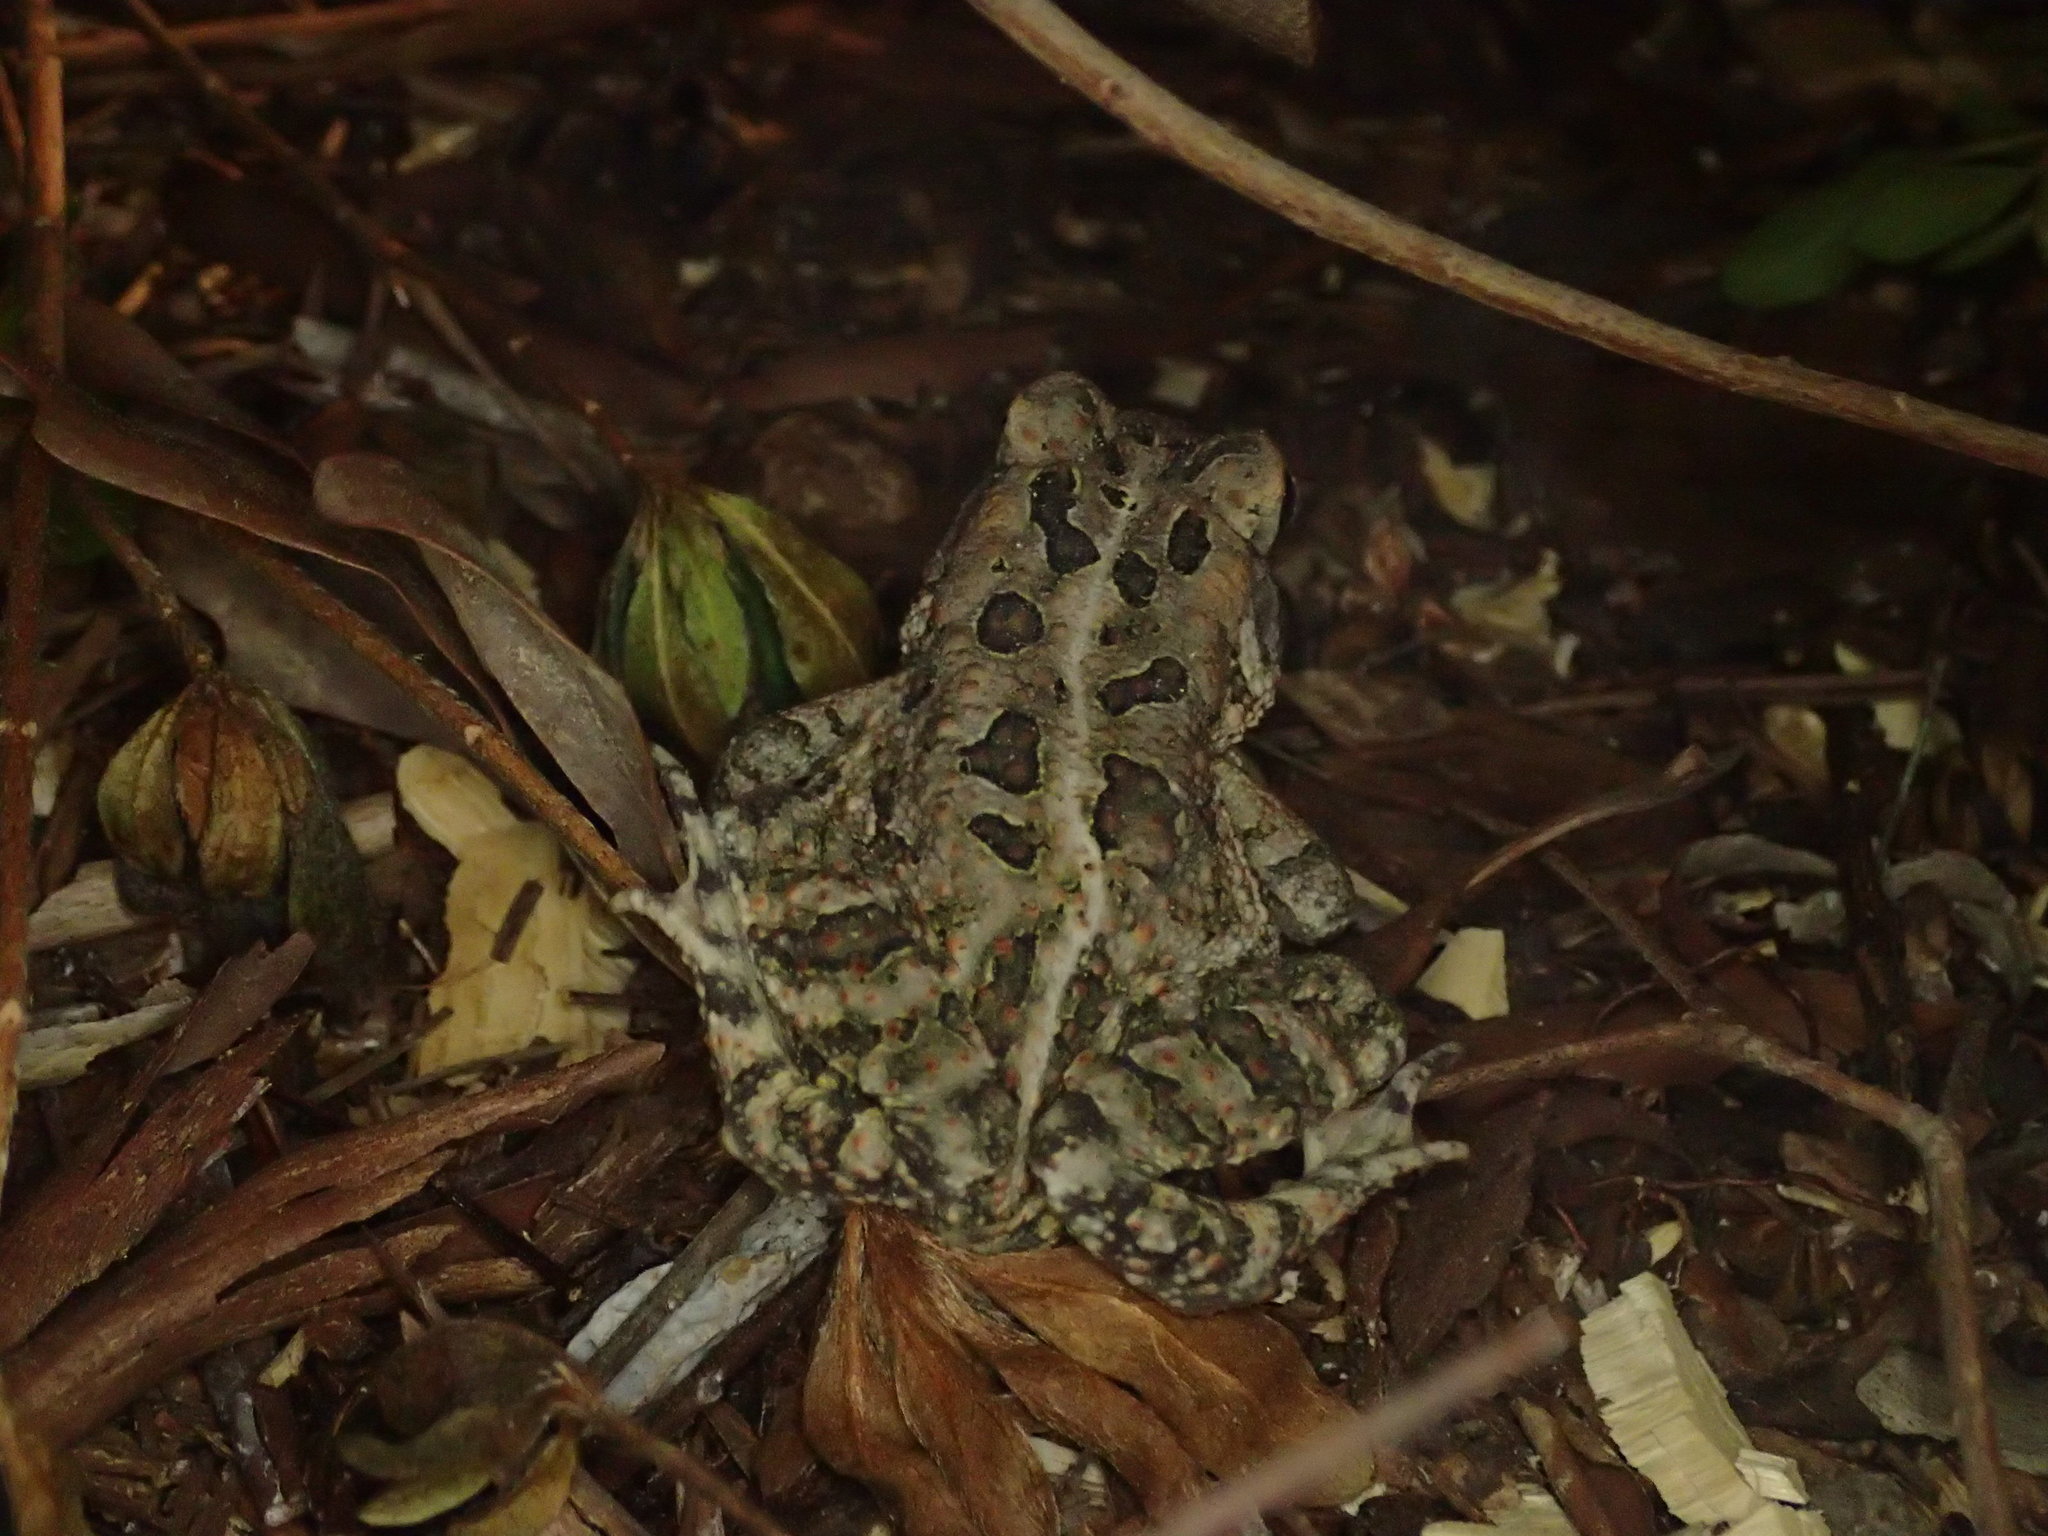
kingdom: Animalia
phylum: Chordata
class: Amphibia
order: Anura
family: Bufonidae
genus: Anaxyrus
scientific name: Anaxyrus fowleri
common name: Fowler's toad
